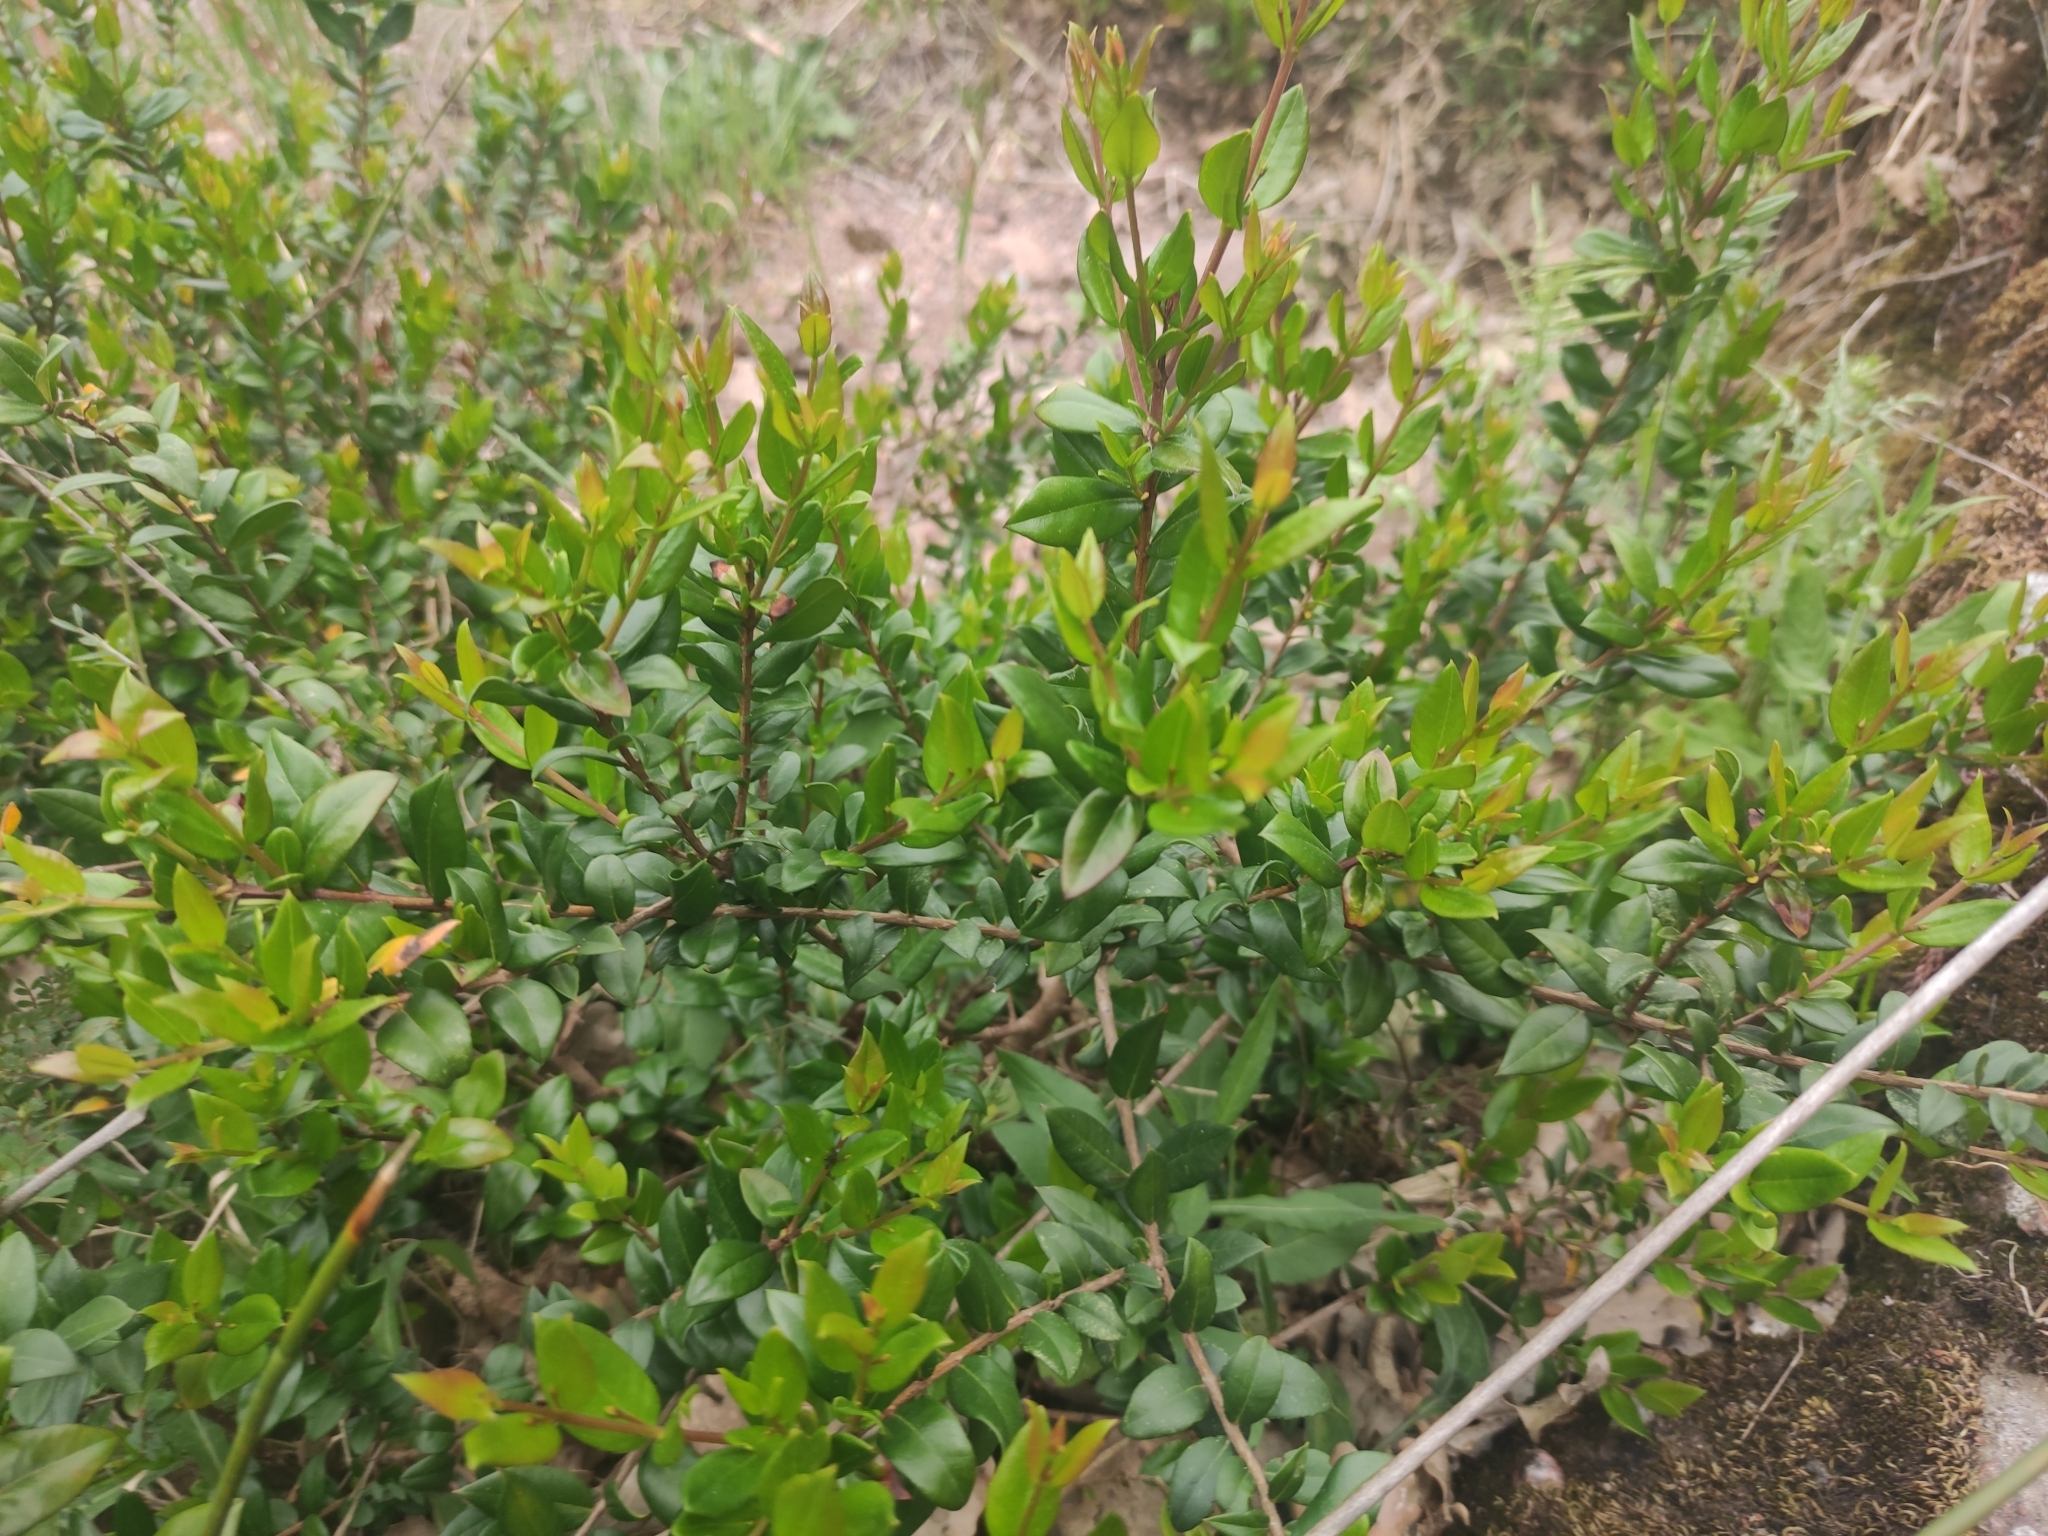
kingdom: Plantae
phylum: Tracheophyta
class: Magnoliopsida
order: Myrtales
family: Myrtaceae
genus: Myrtus
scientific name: Myrtus communis
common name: Myrtle
